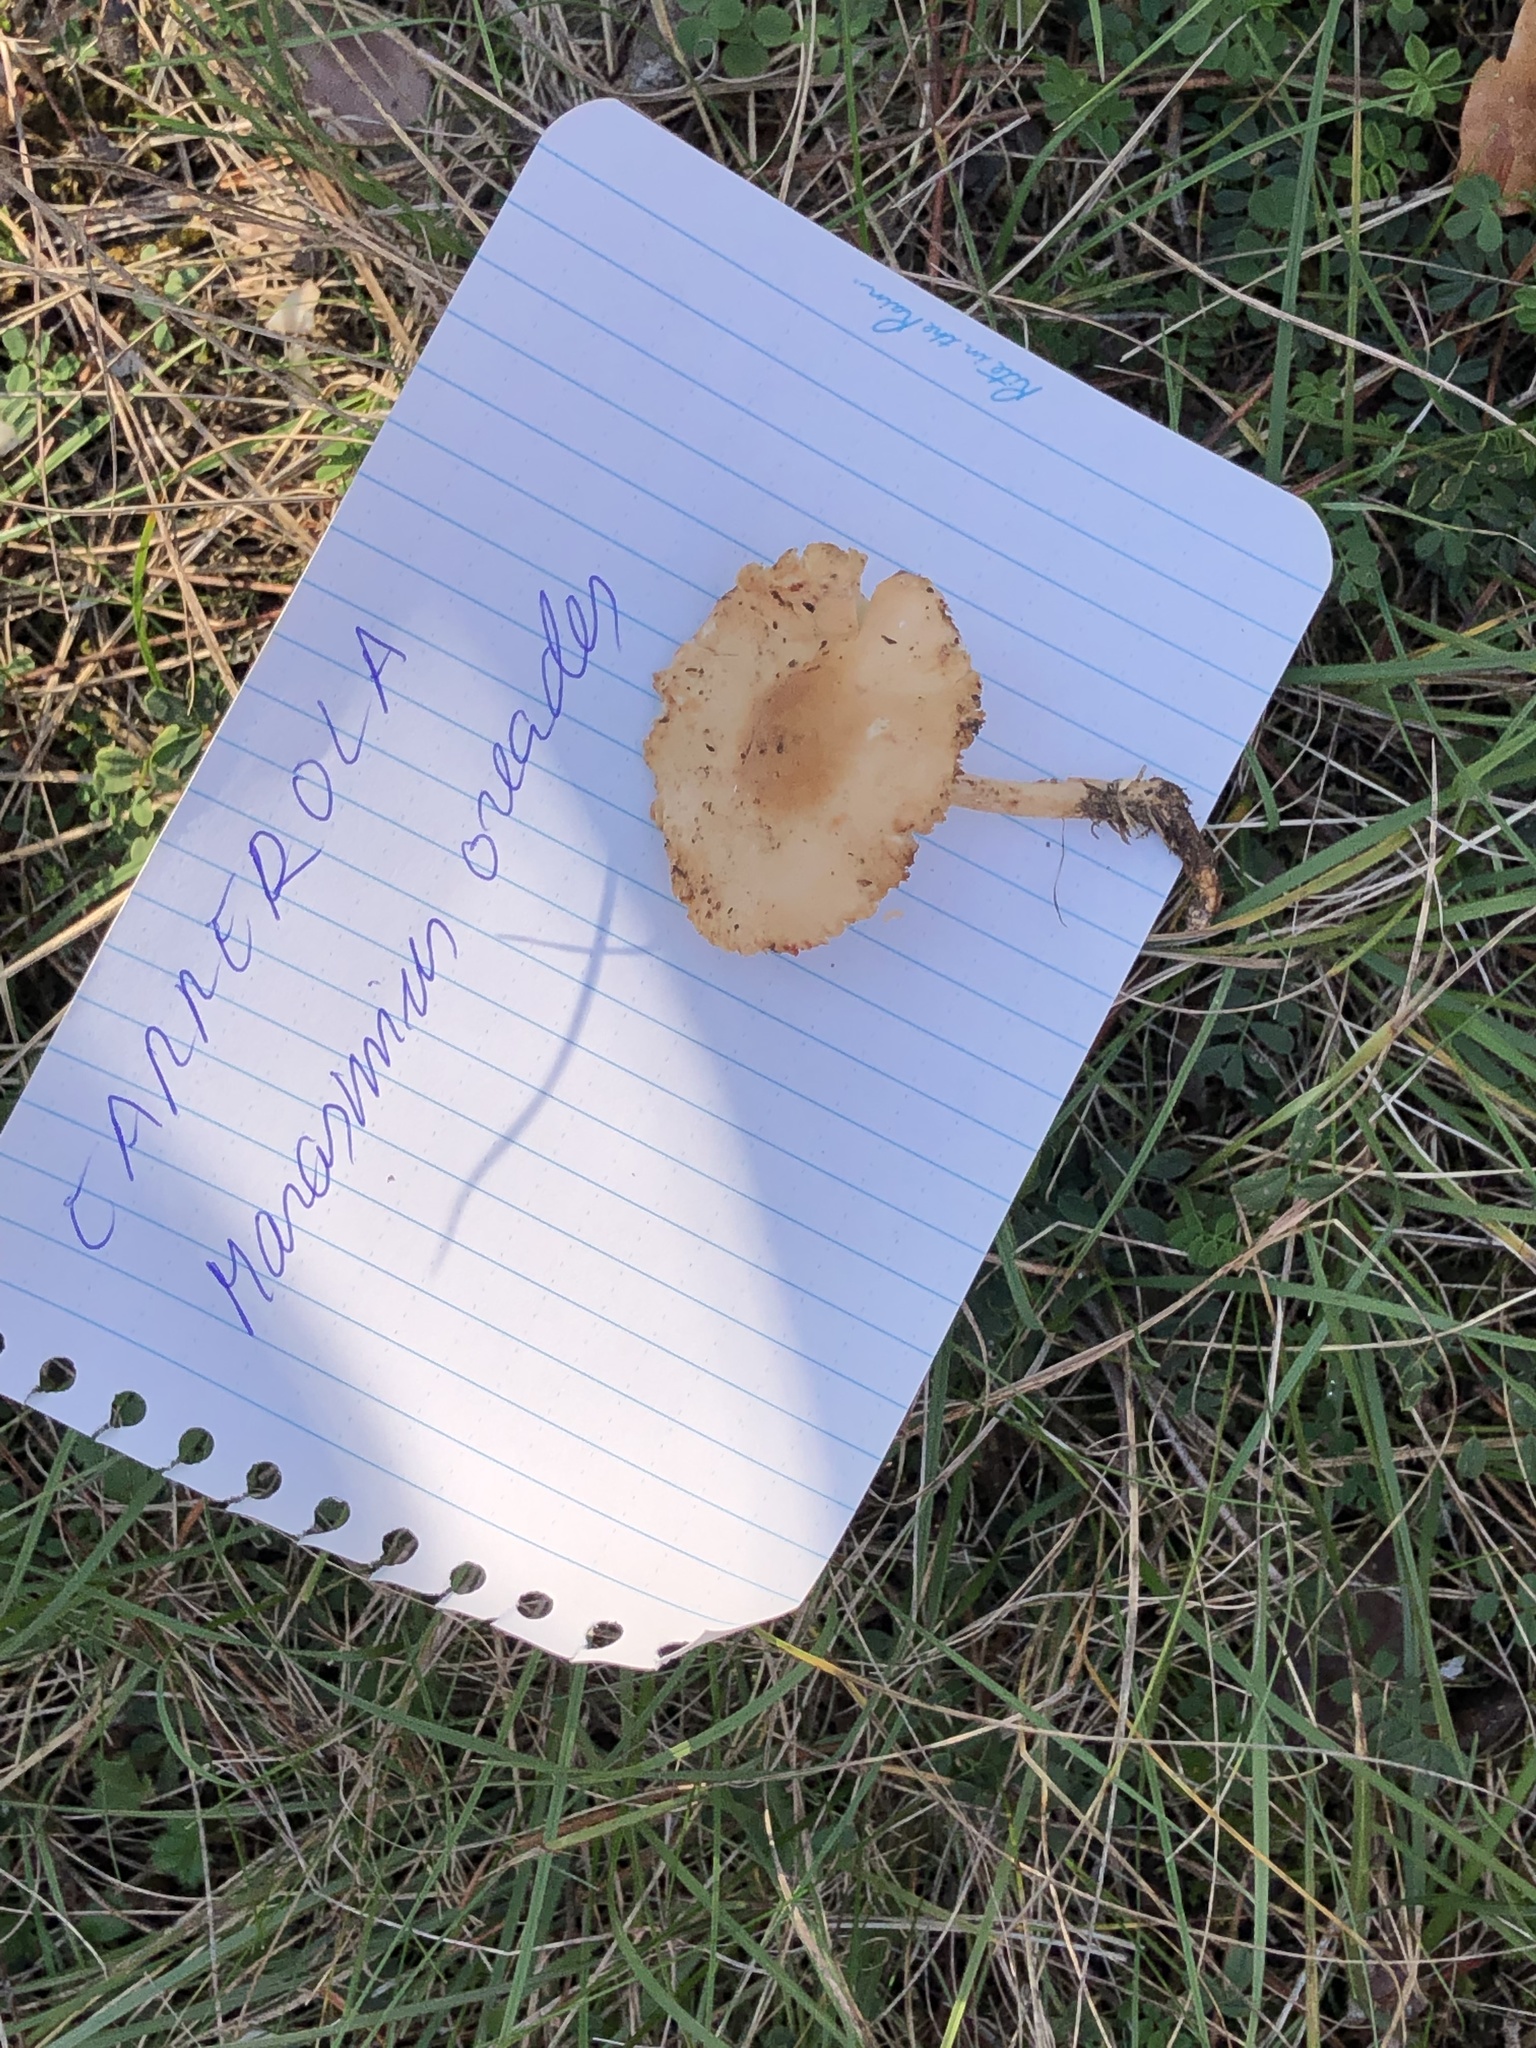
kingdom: Fungi
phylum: Basidiomycota
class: Agaricomycetes
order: Agaricales
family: Marasmiaceae
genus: Marasmius
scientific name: Marasmius oreades
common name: Fairy ring champignon
